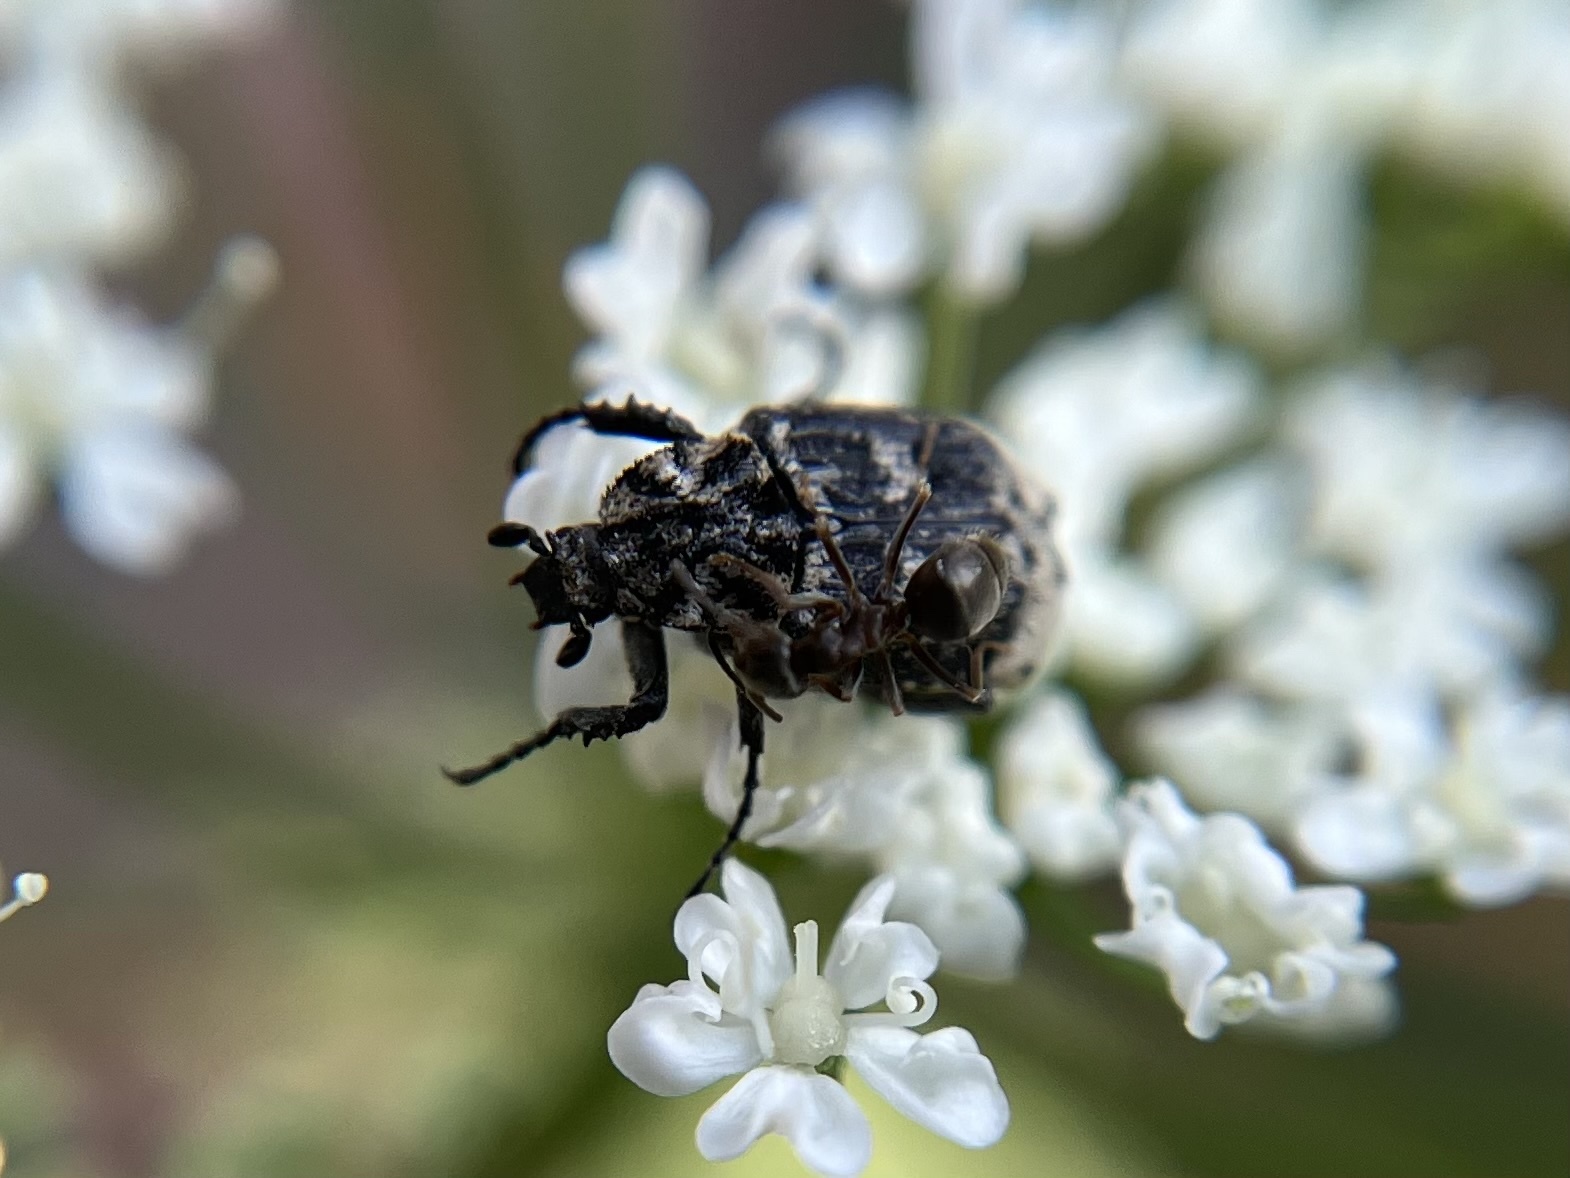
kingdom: Animalia
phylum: Arthropoda
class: Insecta
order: Coleoptera
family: Scarabaeidae
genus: Valgus
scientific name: Valgus hemipterus
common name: Bug flower chafer
